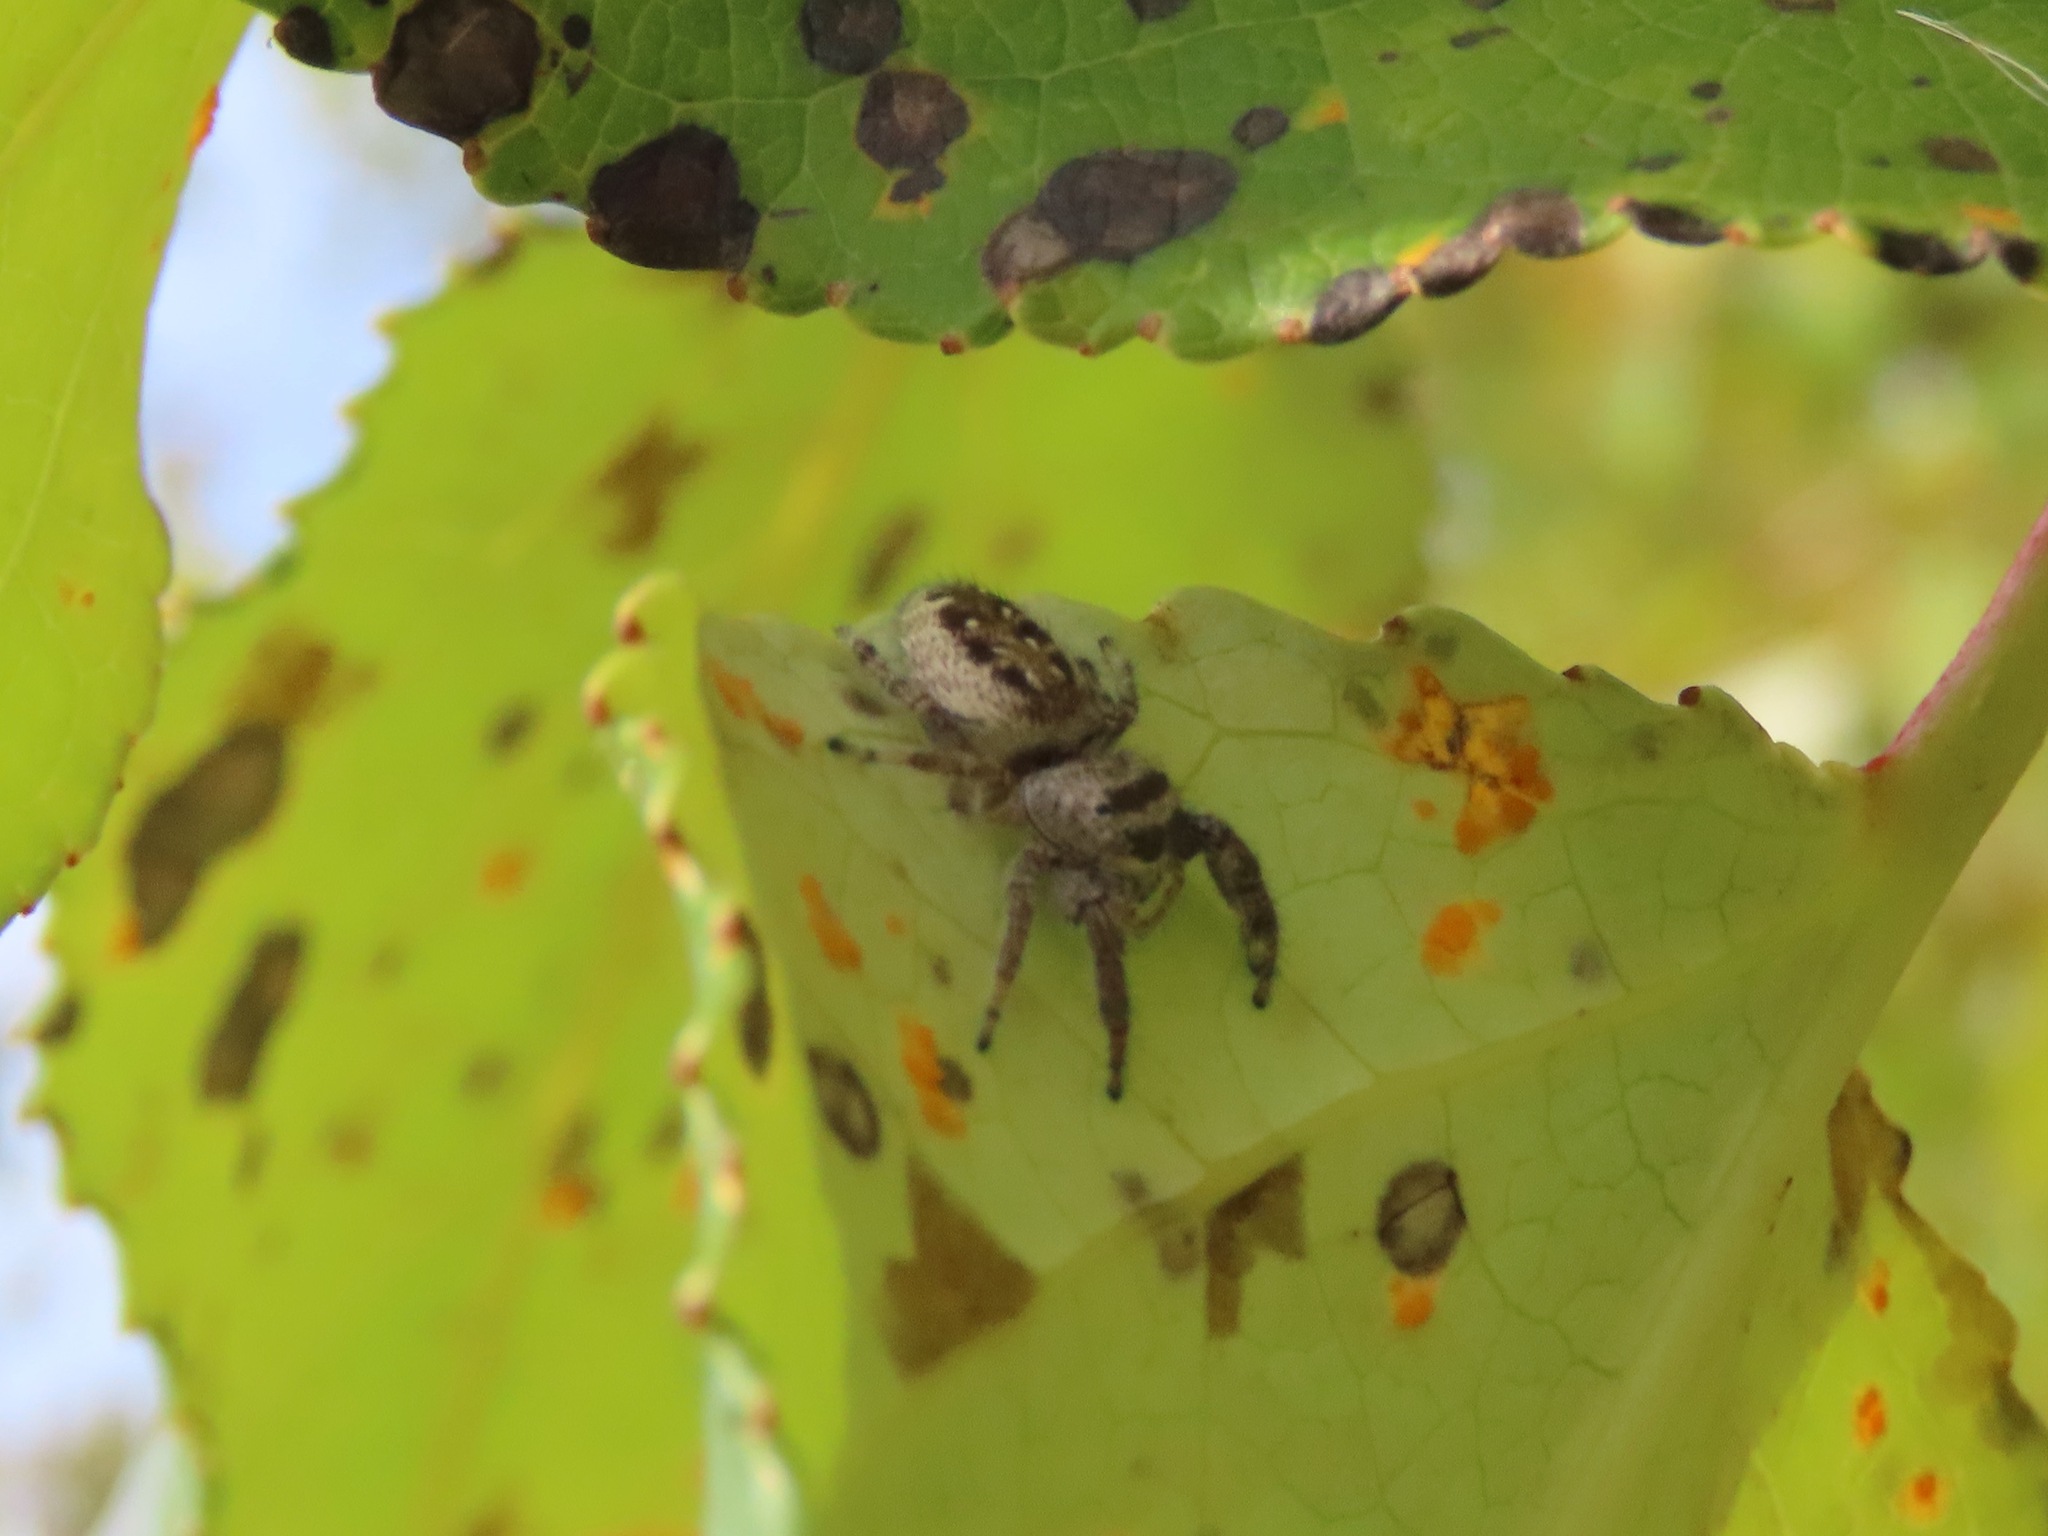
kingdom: Animalia
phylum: Arthropoda
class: Arachnida
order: Araneae
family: Salticidae
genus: Eris
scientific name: Eris militaris
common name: Bronze jumper
